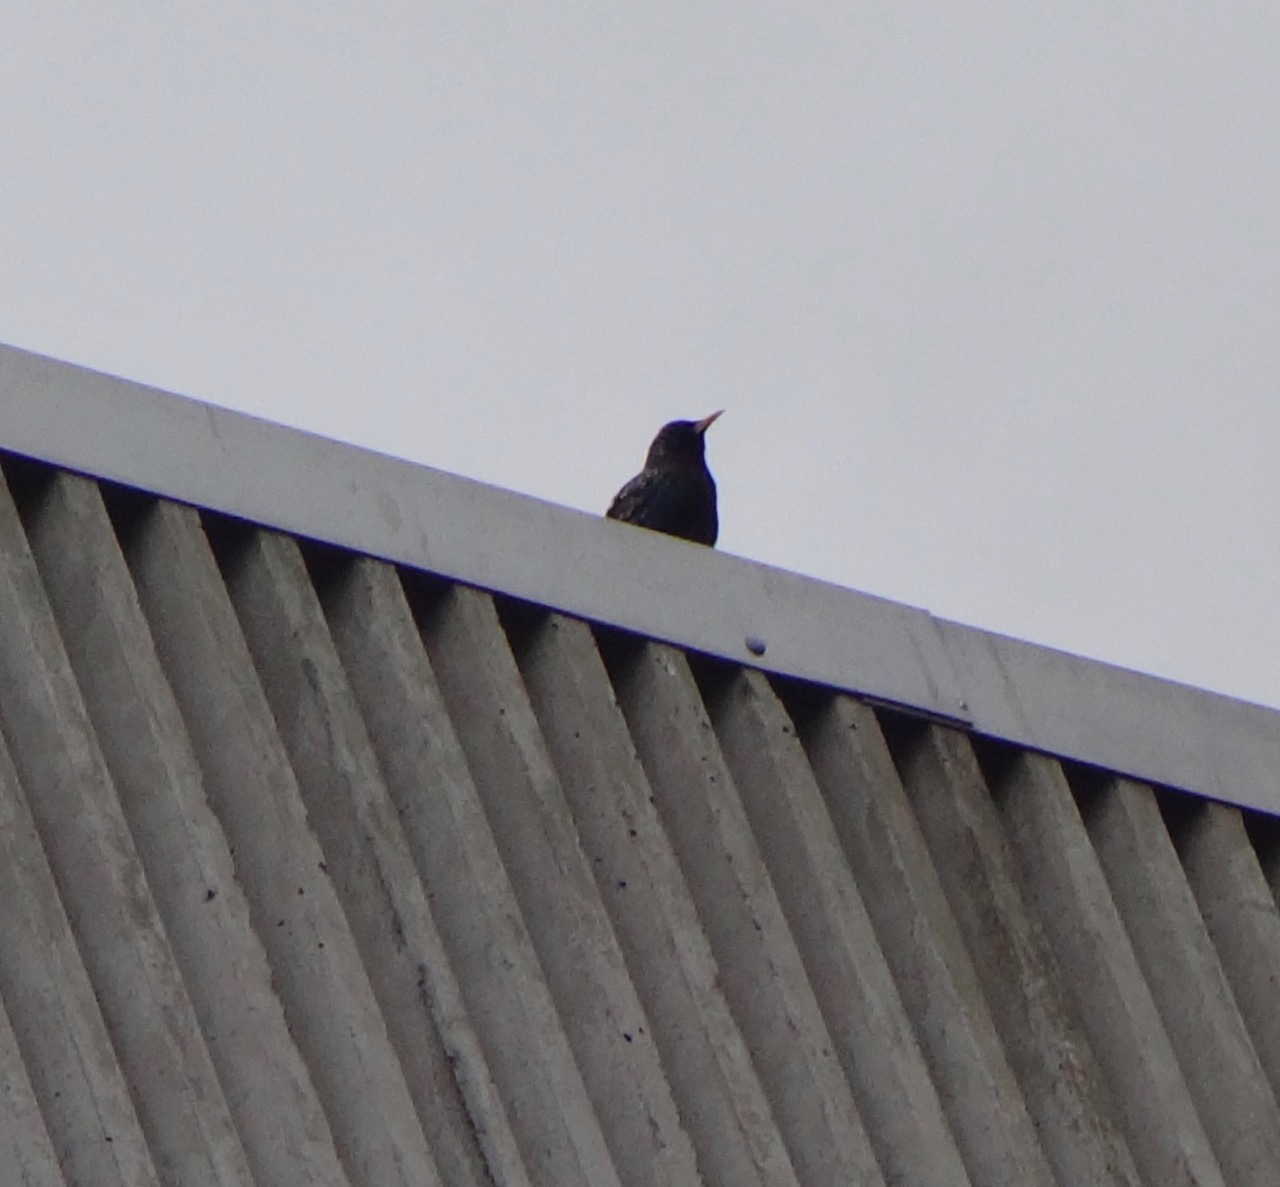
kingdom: Animalia
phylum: Chordata
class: Aves
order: Passeriformes
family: Sturnidae
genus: Sturnus
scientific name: Sturnus vulgaris
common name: Common starling
